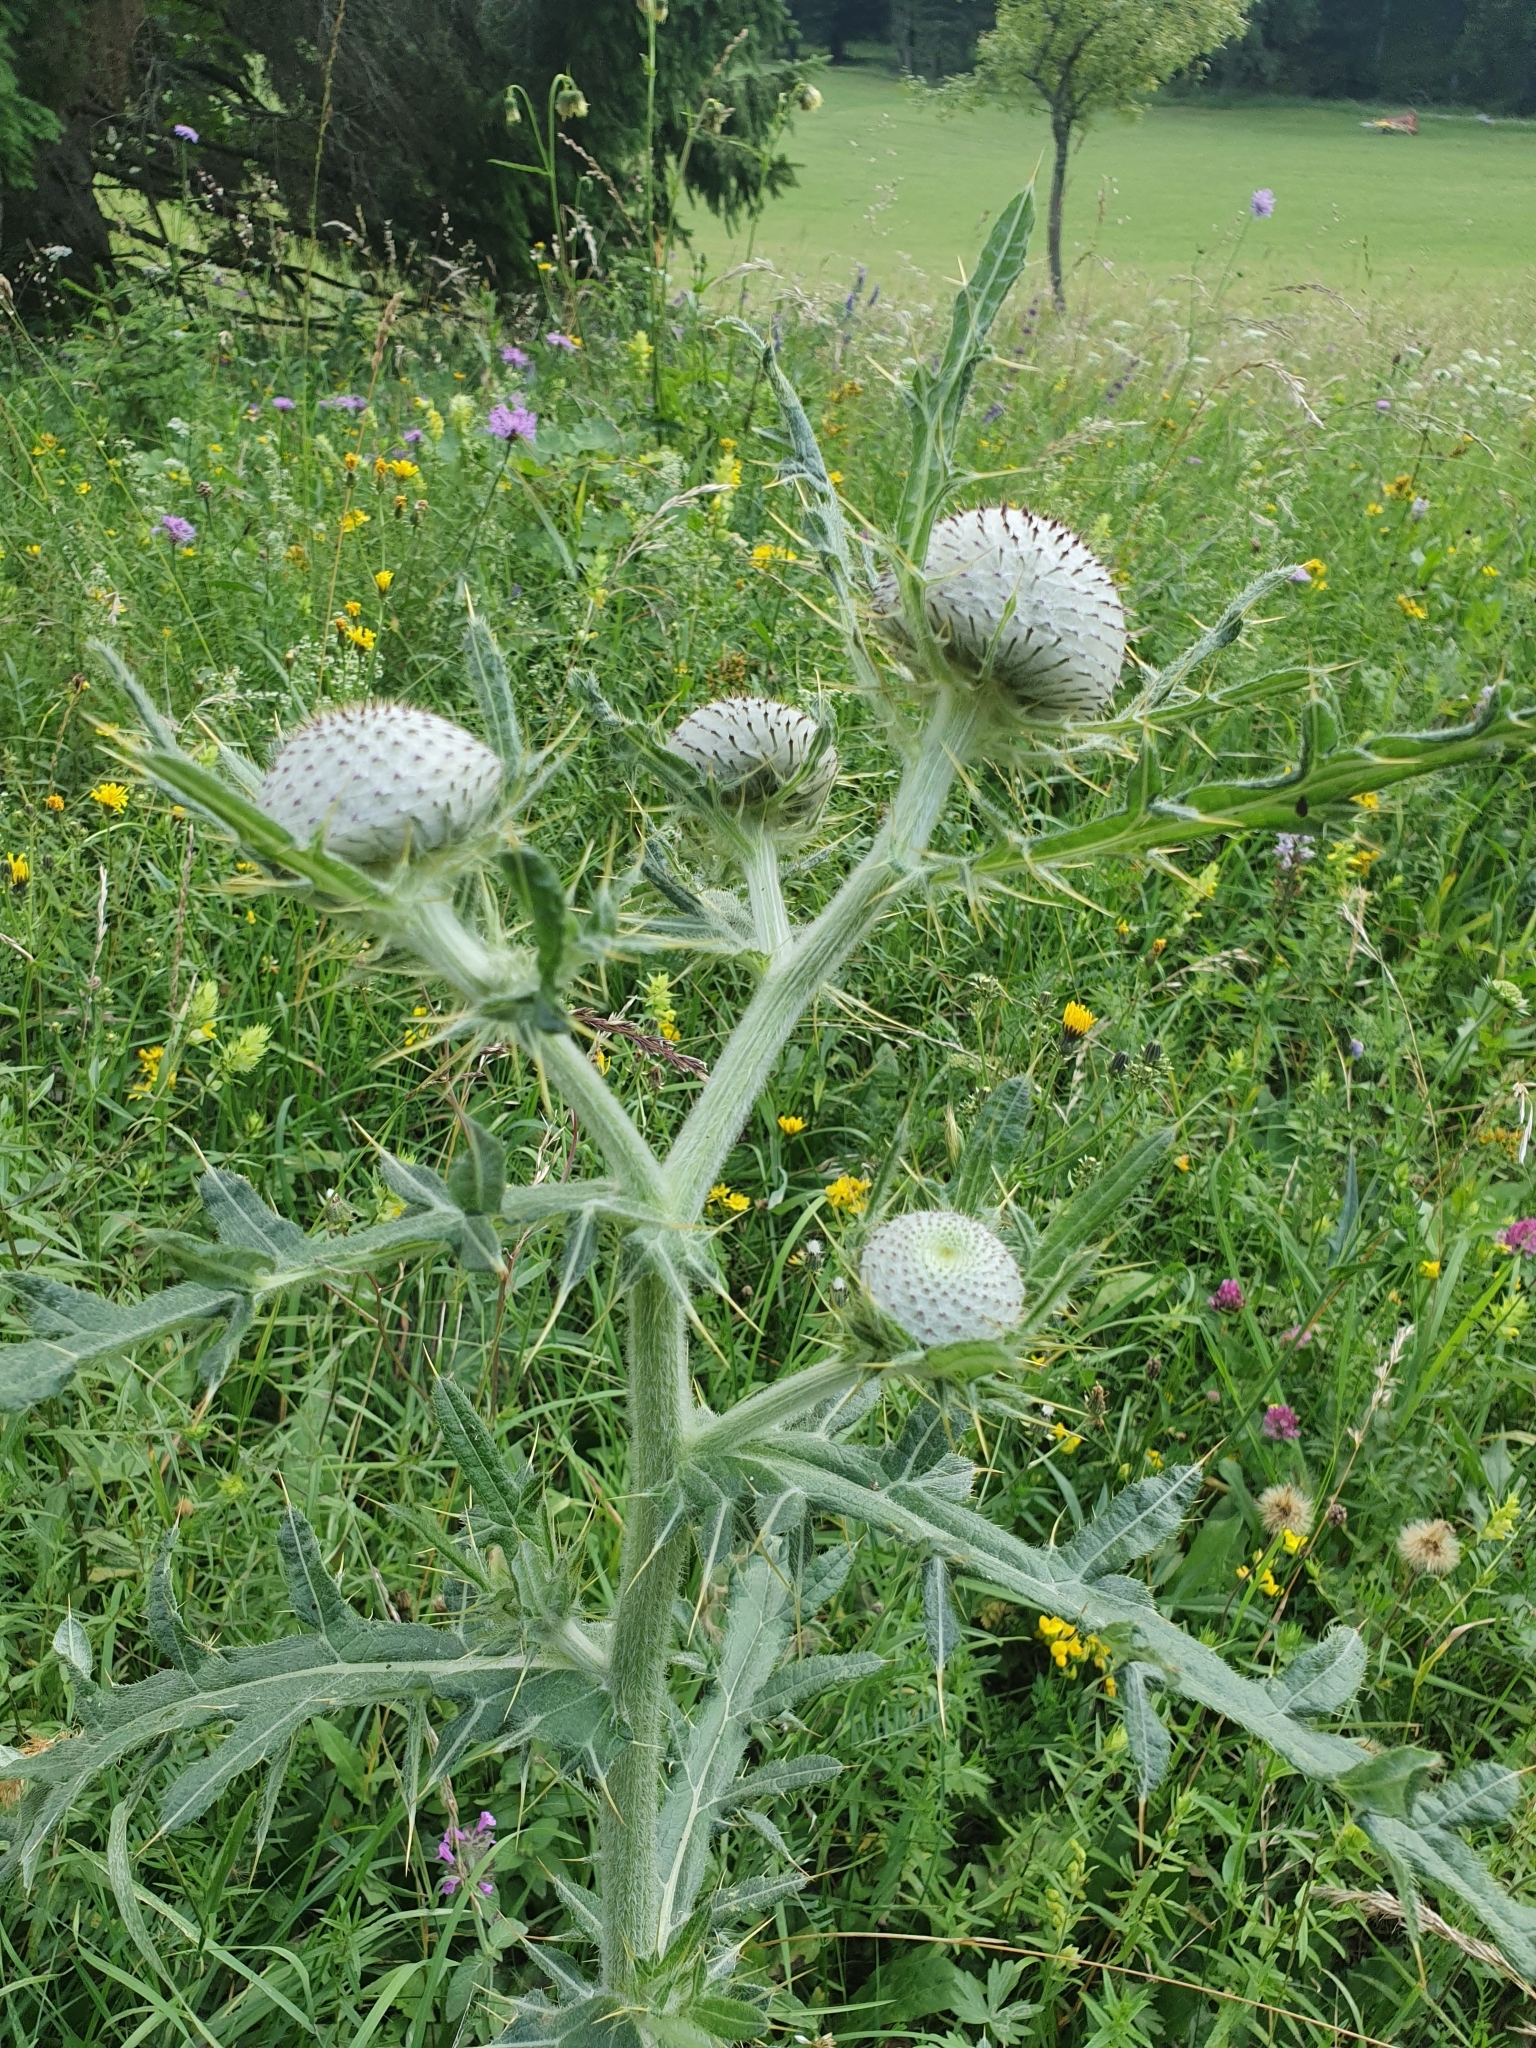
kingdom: Plantae
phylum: Tracheophyta
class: Magnoliopsida
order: Asterales
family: Asteraceae
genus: Lophiolepis
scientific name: Lophiolepis eriophora
